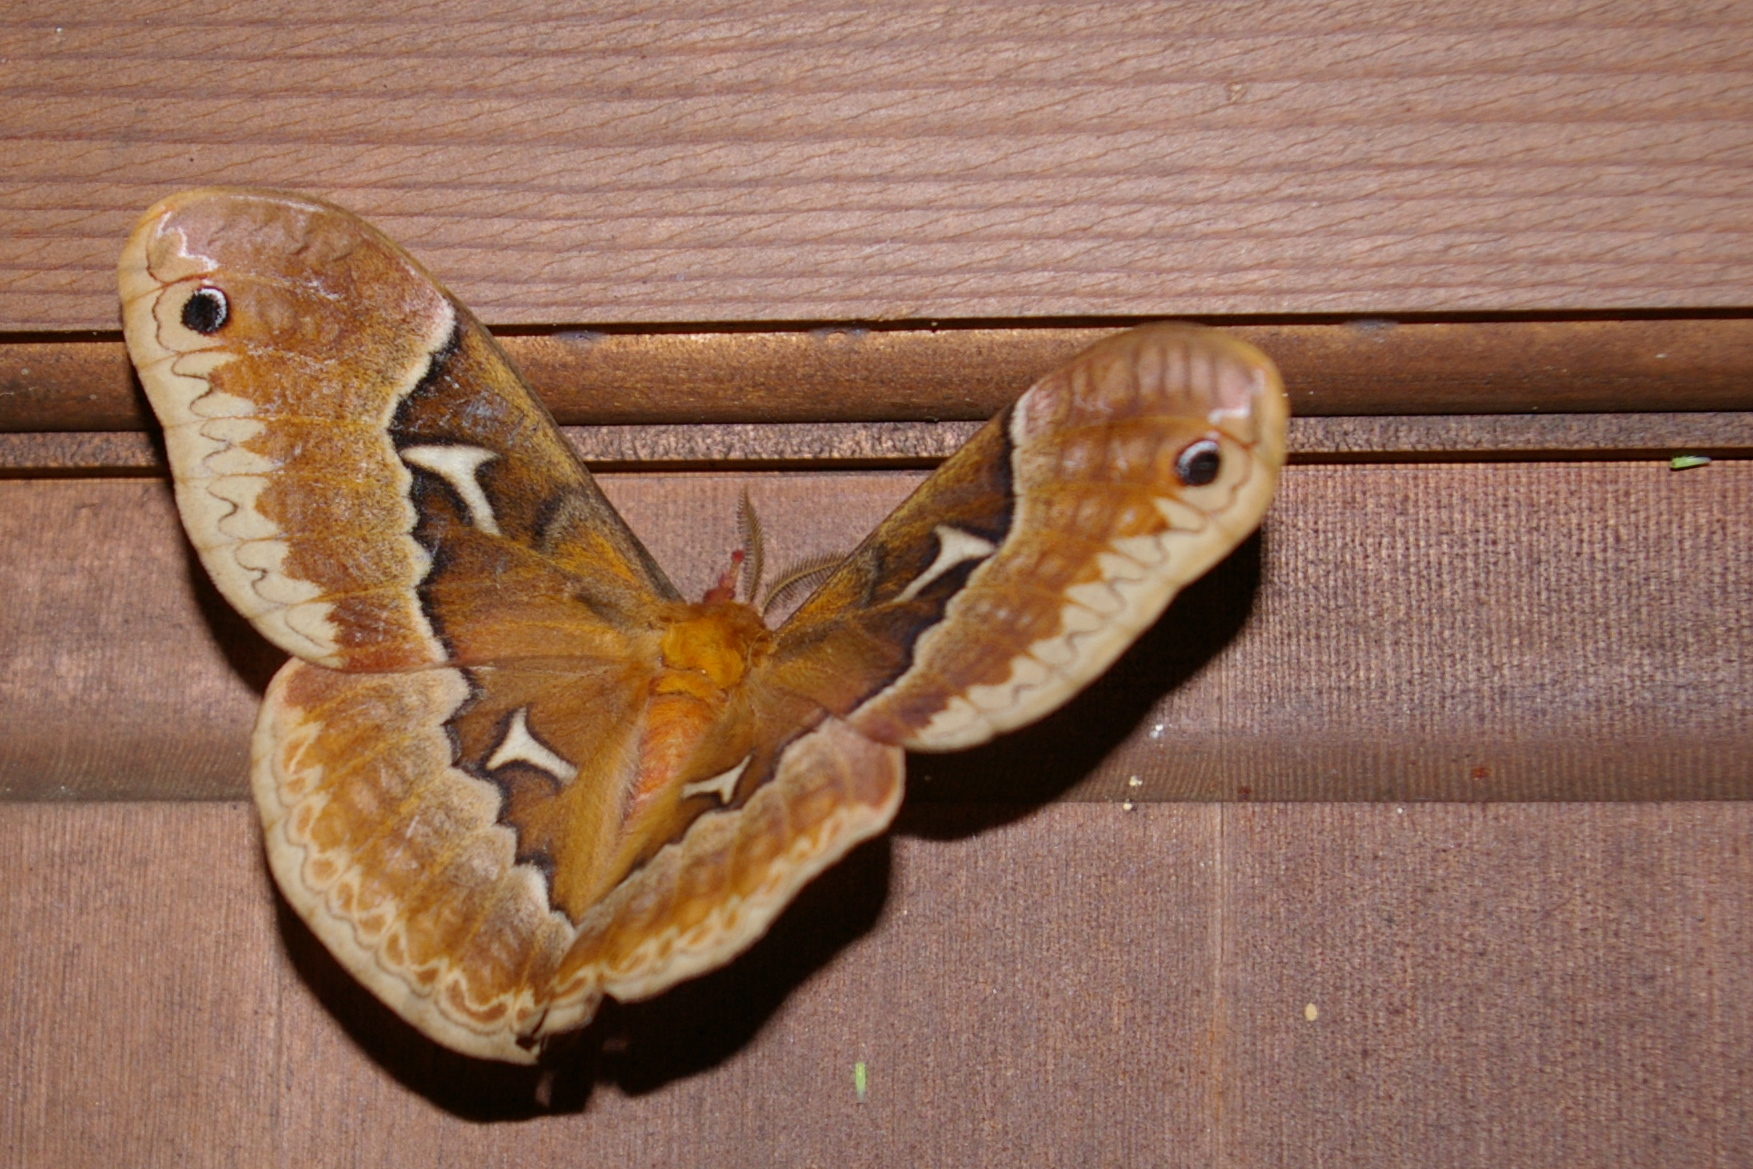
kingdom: Animalia
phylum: Arthropoda
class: Insecta
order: Lepidoptera
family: Saturniidae
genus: Callosamia
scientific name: Callosamia angulifera
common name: Tulip tree silkmoth
